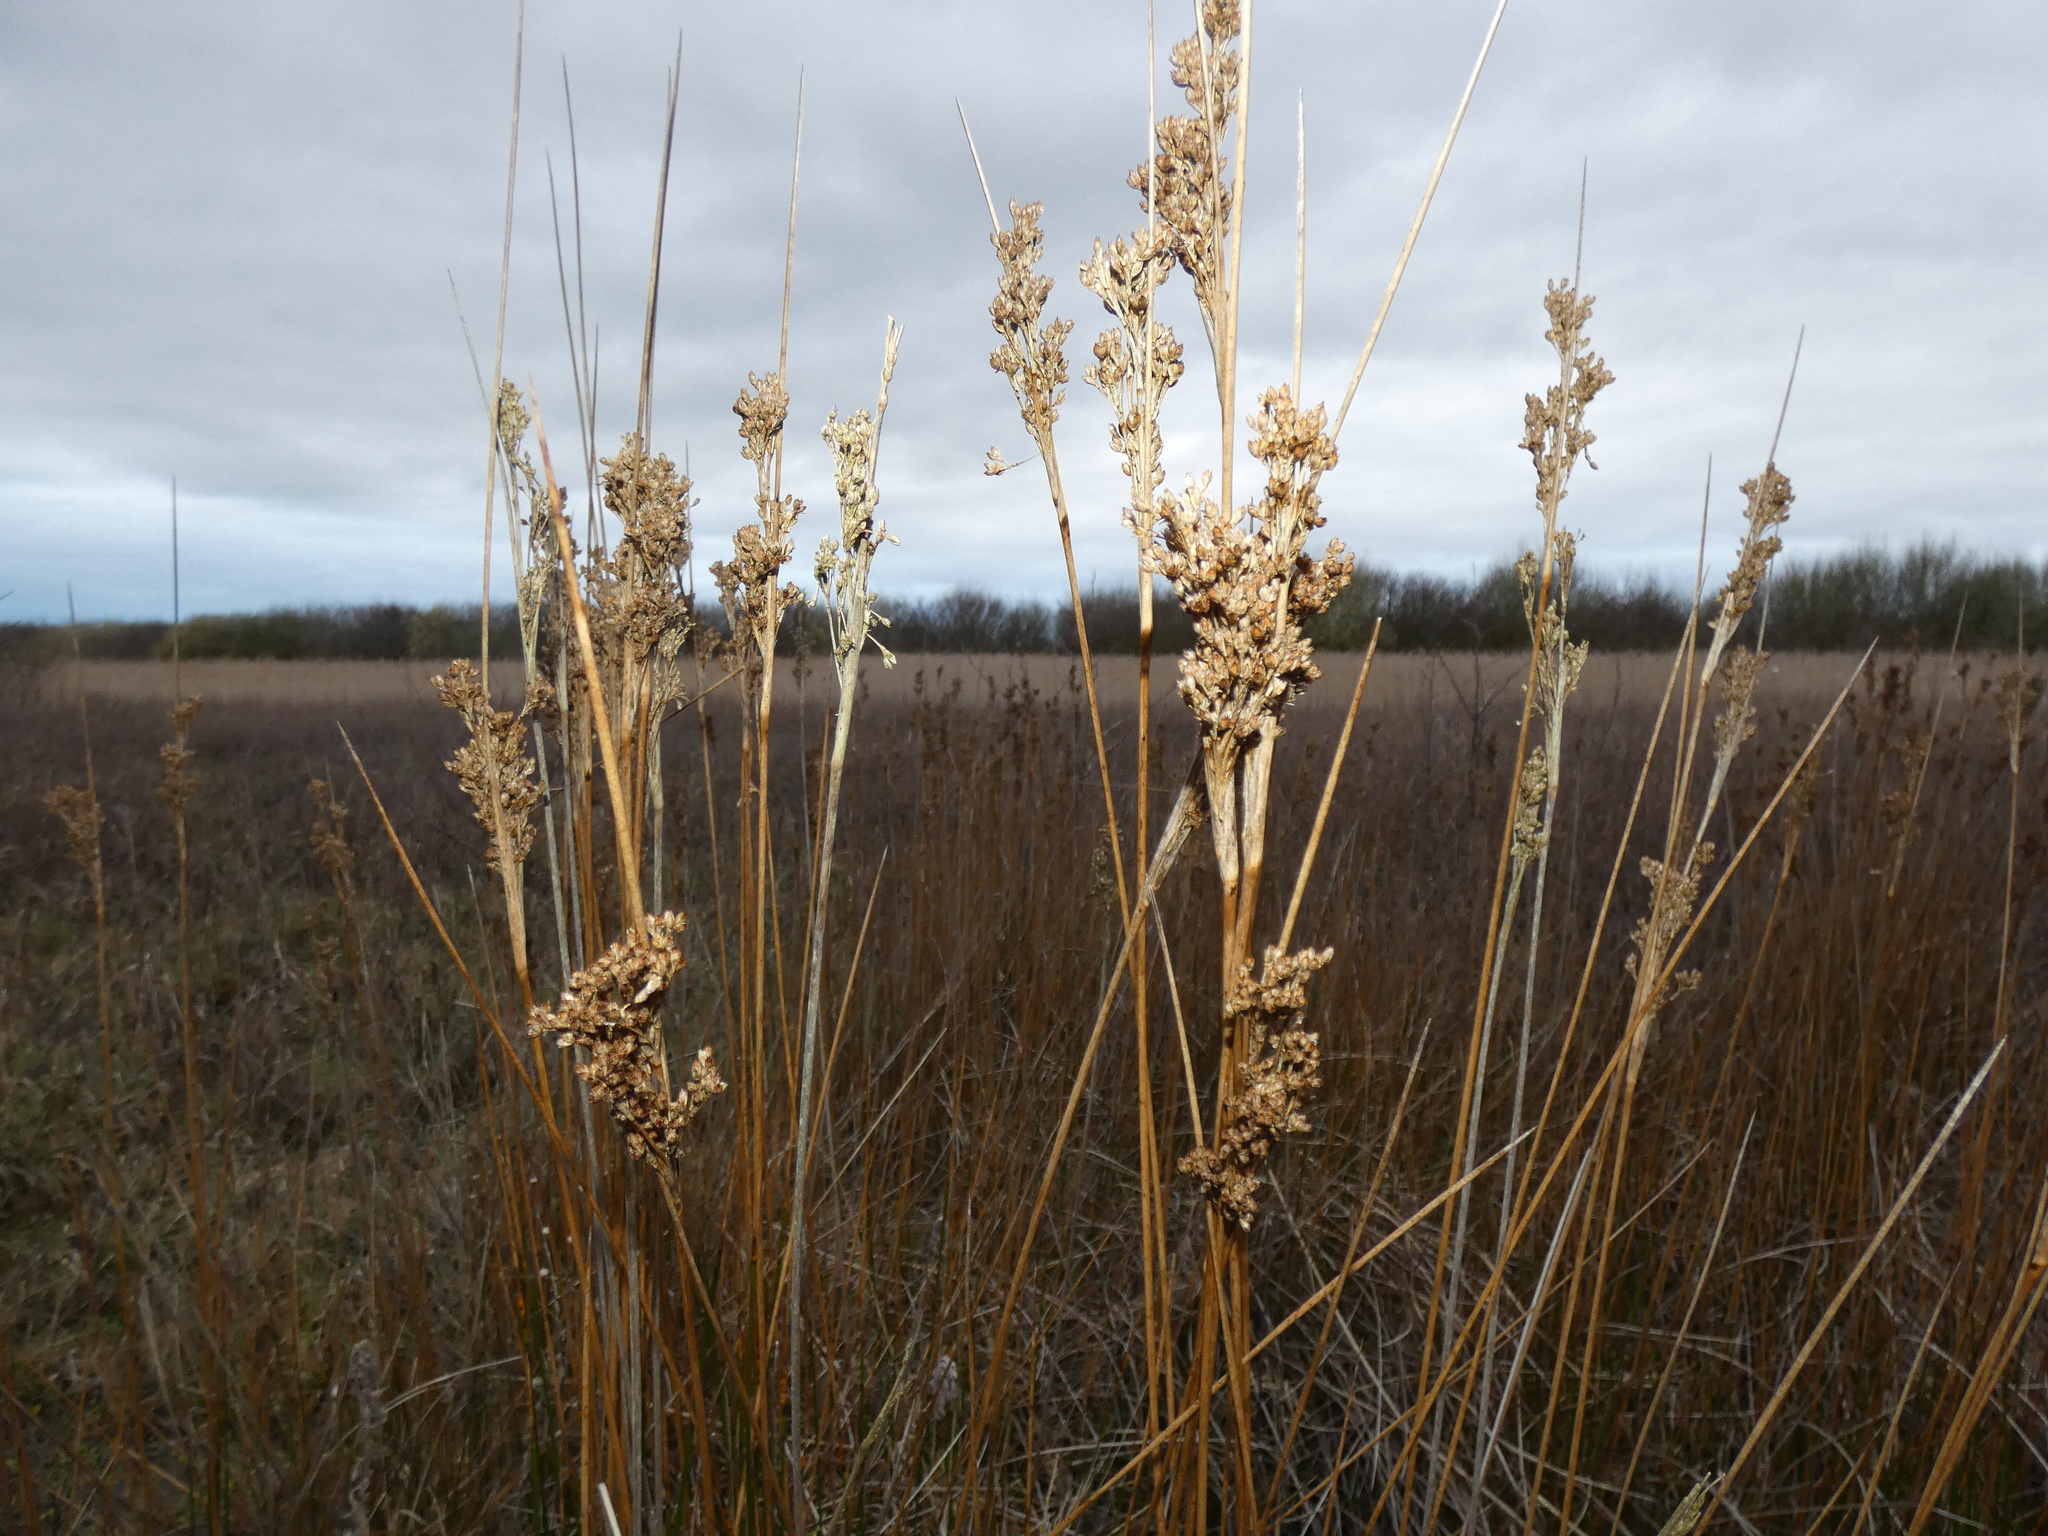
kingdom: Plantae
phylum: Tracheophyta
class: Liliopsida
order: Poales
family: Juncaceae
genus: Juncus
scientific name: Juncus maritimus
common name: Sea rush
